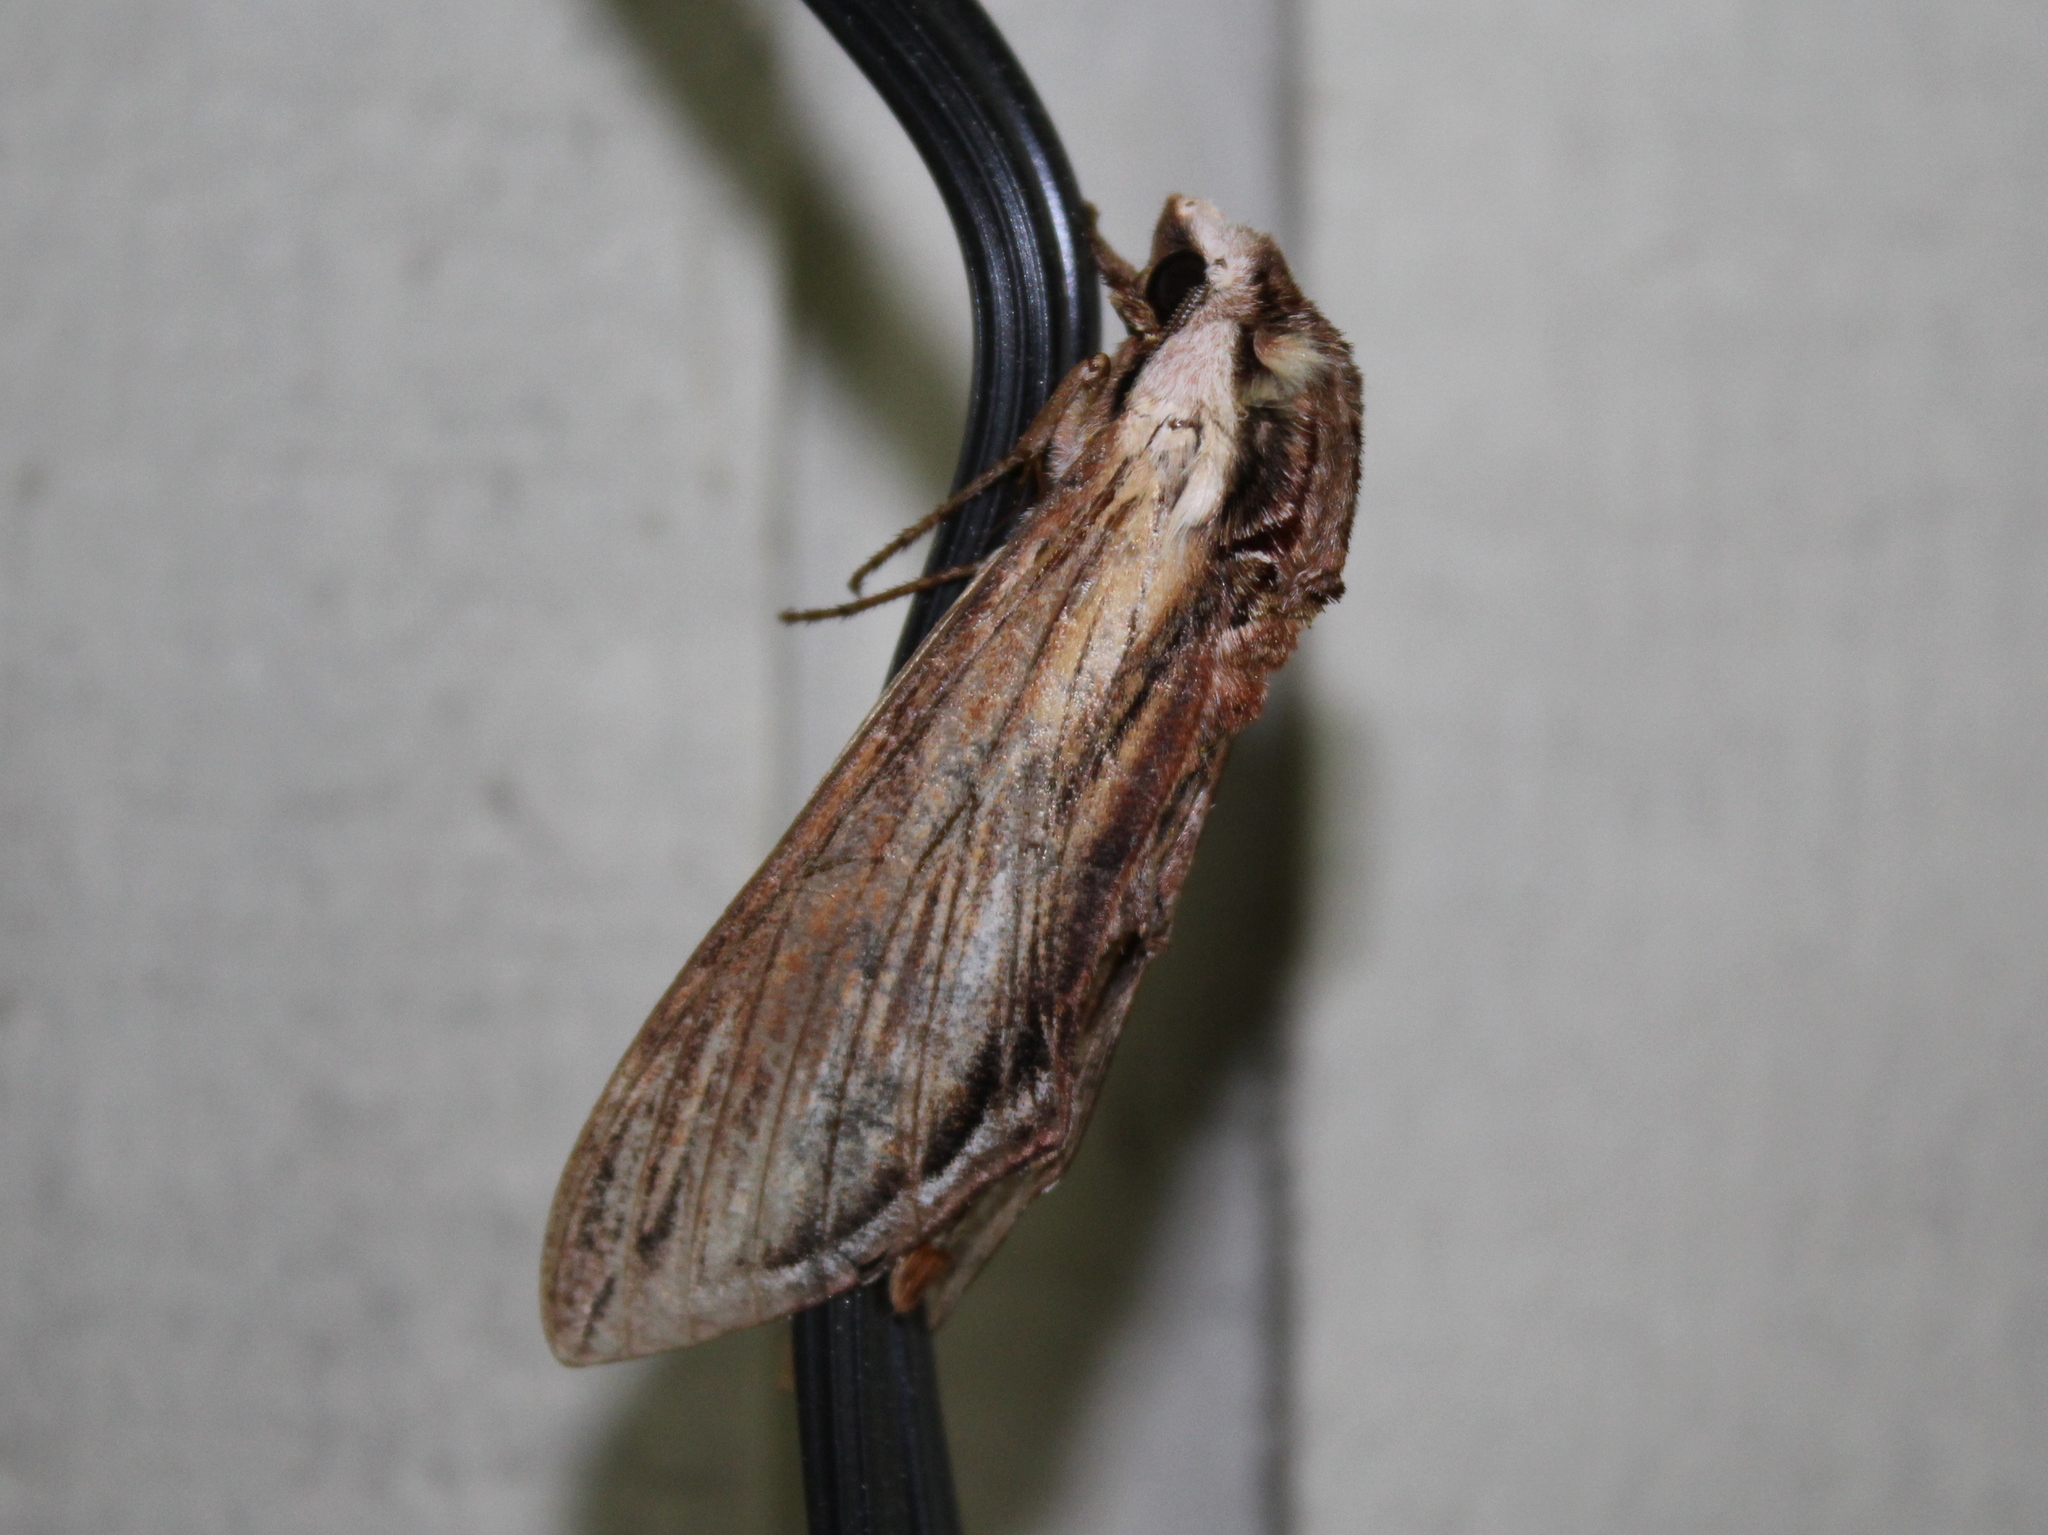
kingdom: Animalia
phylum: Arthropoda
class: Insecta
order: Lepidoptera
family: Sphingidae
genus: Sphinx
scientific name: Sphinx kalmiae
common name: Laurel sphinx
